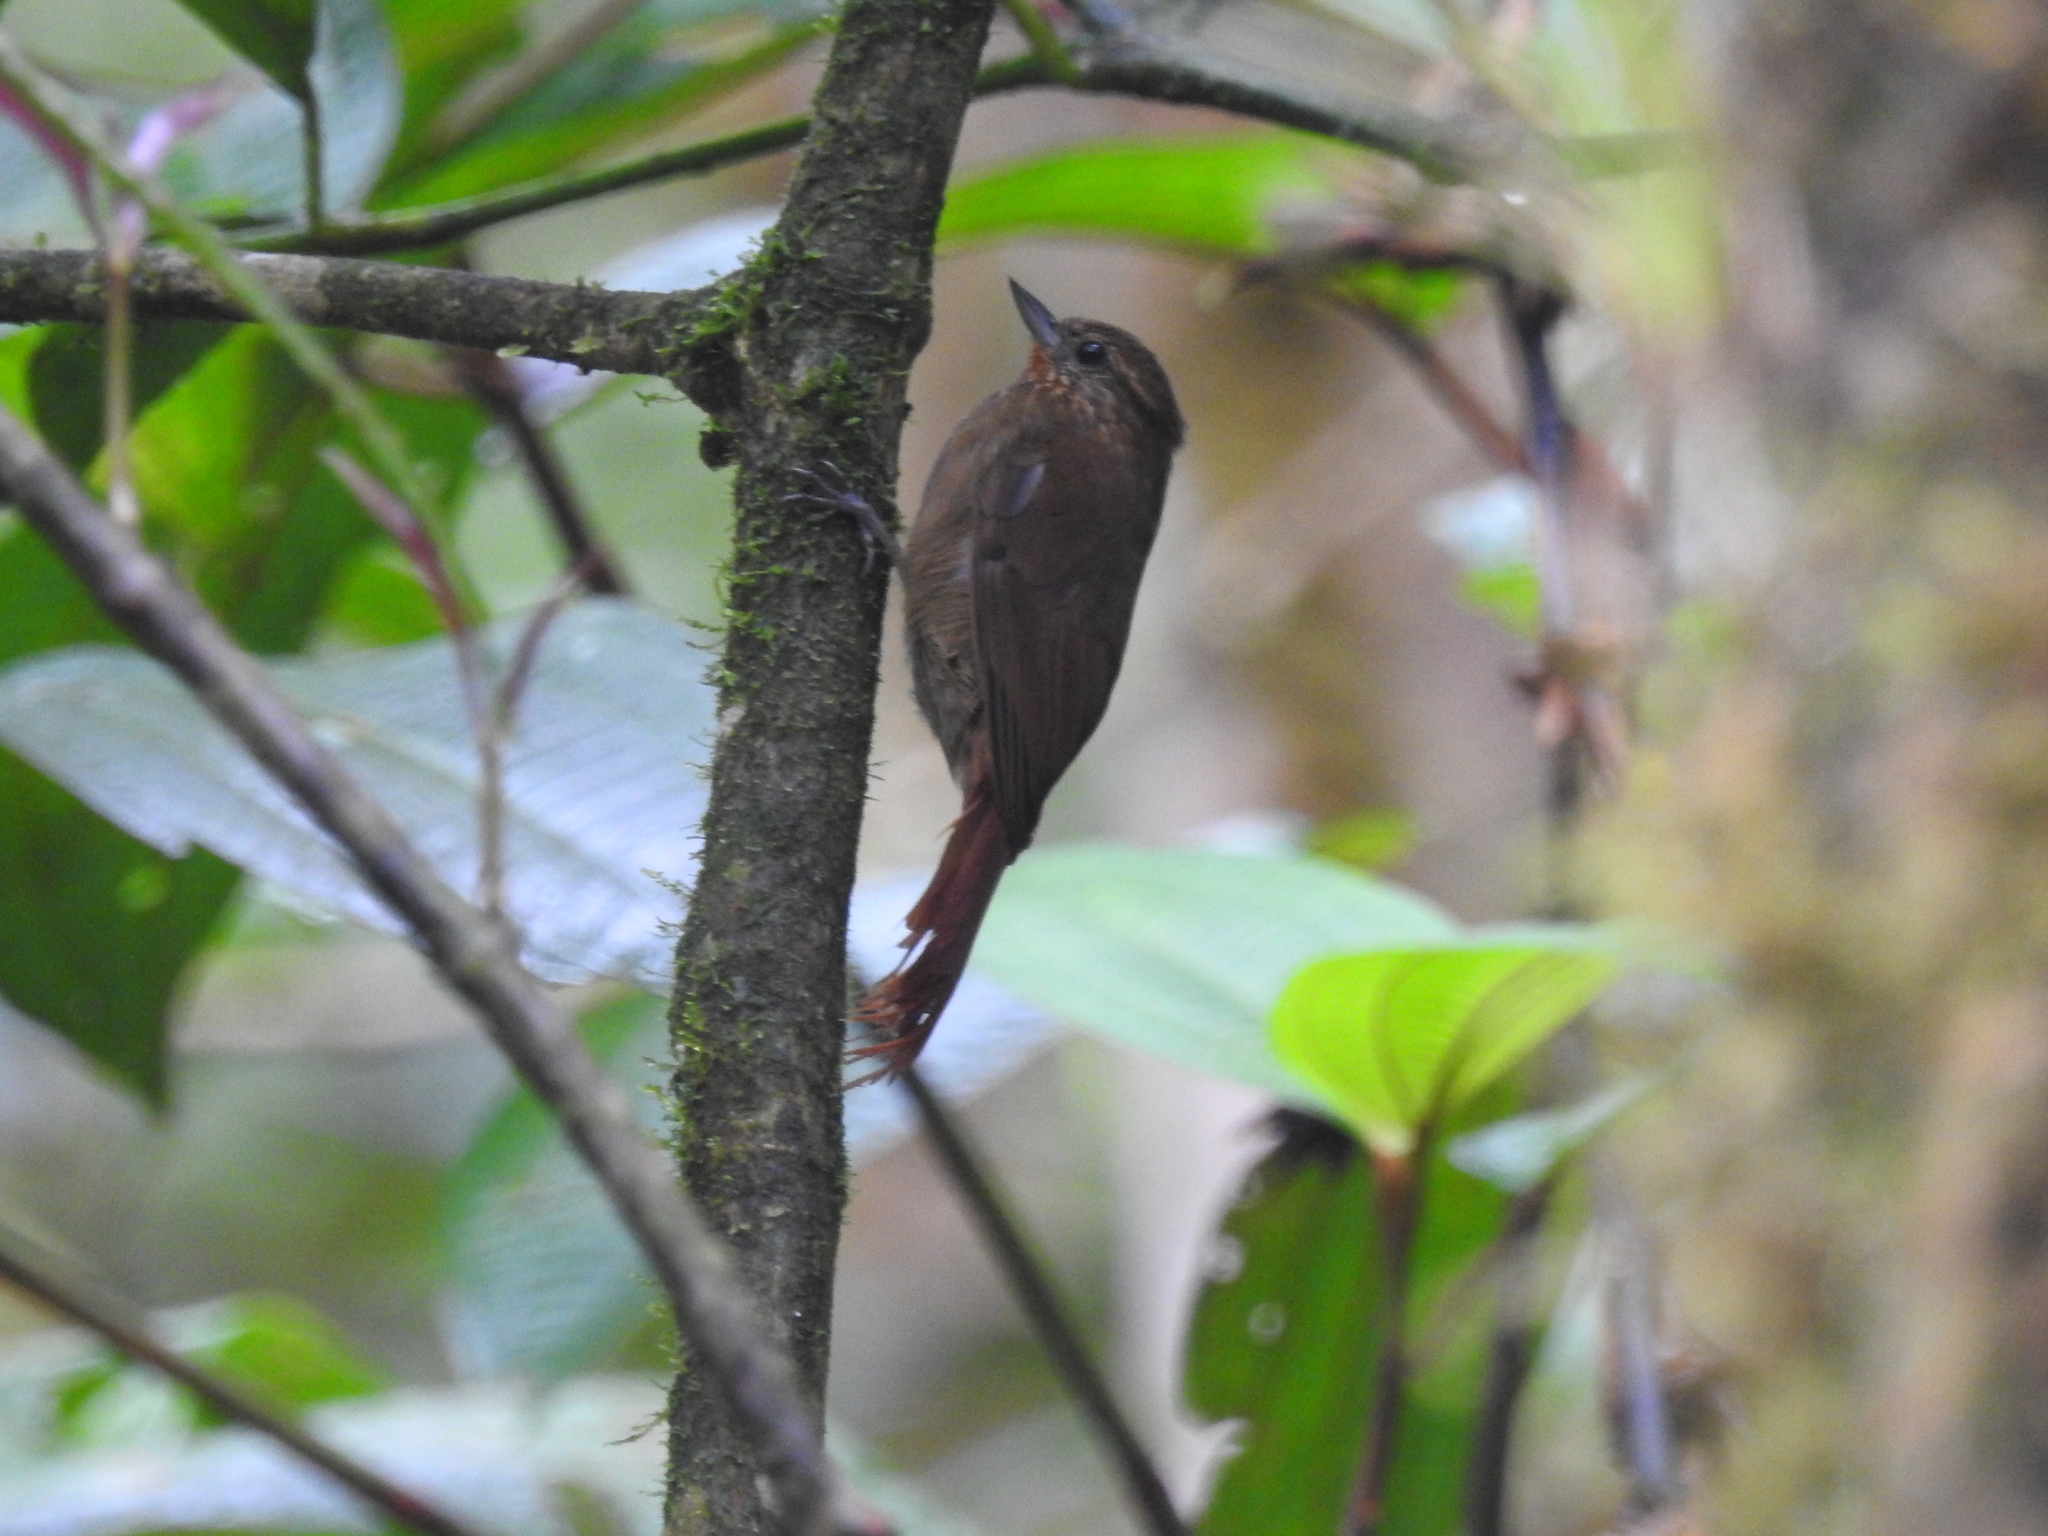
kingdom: Animalia
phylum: Chordata
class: Aves
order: Passeriformes
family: Furnariidae
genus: Glyphorynchus
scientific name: Glyphorynchus spirurus
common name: Wedge-billed woodcreeper
